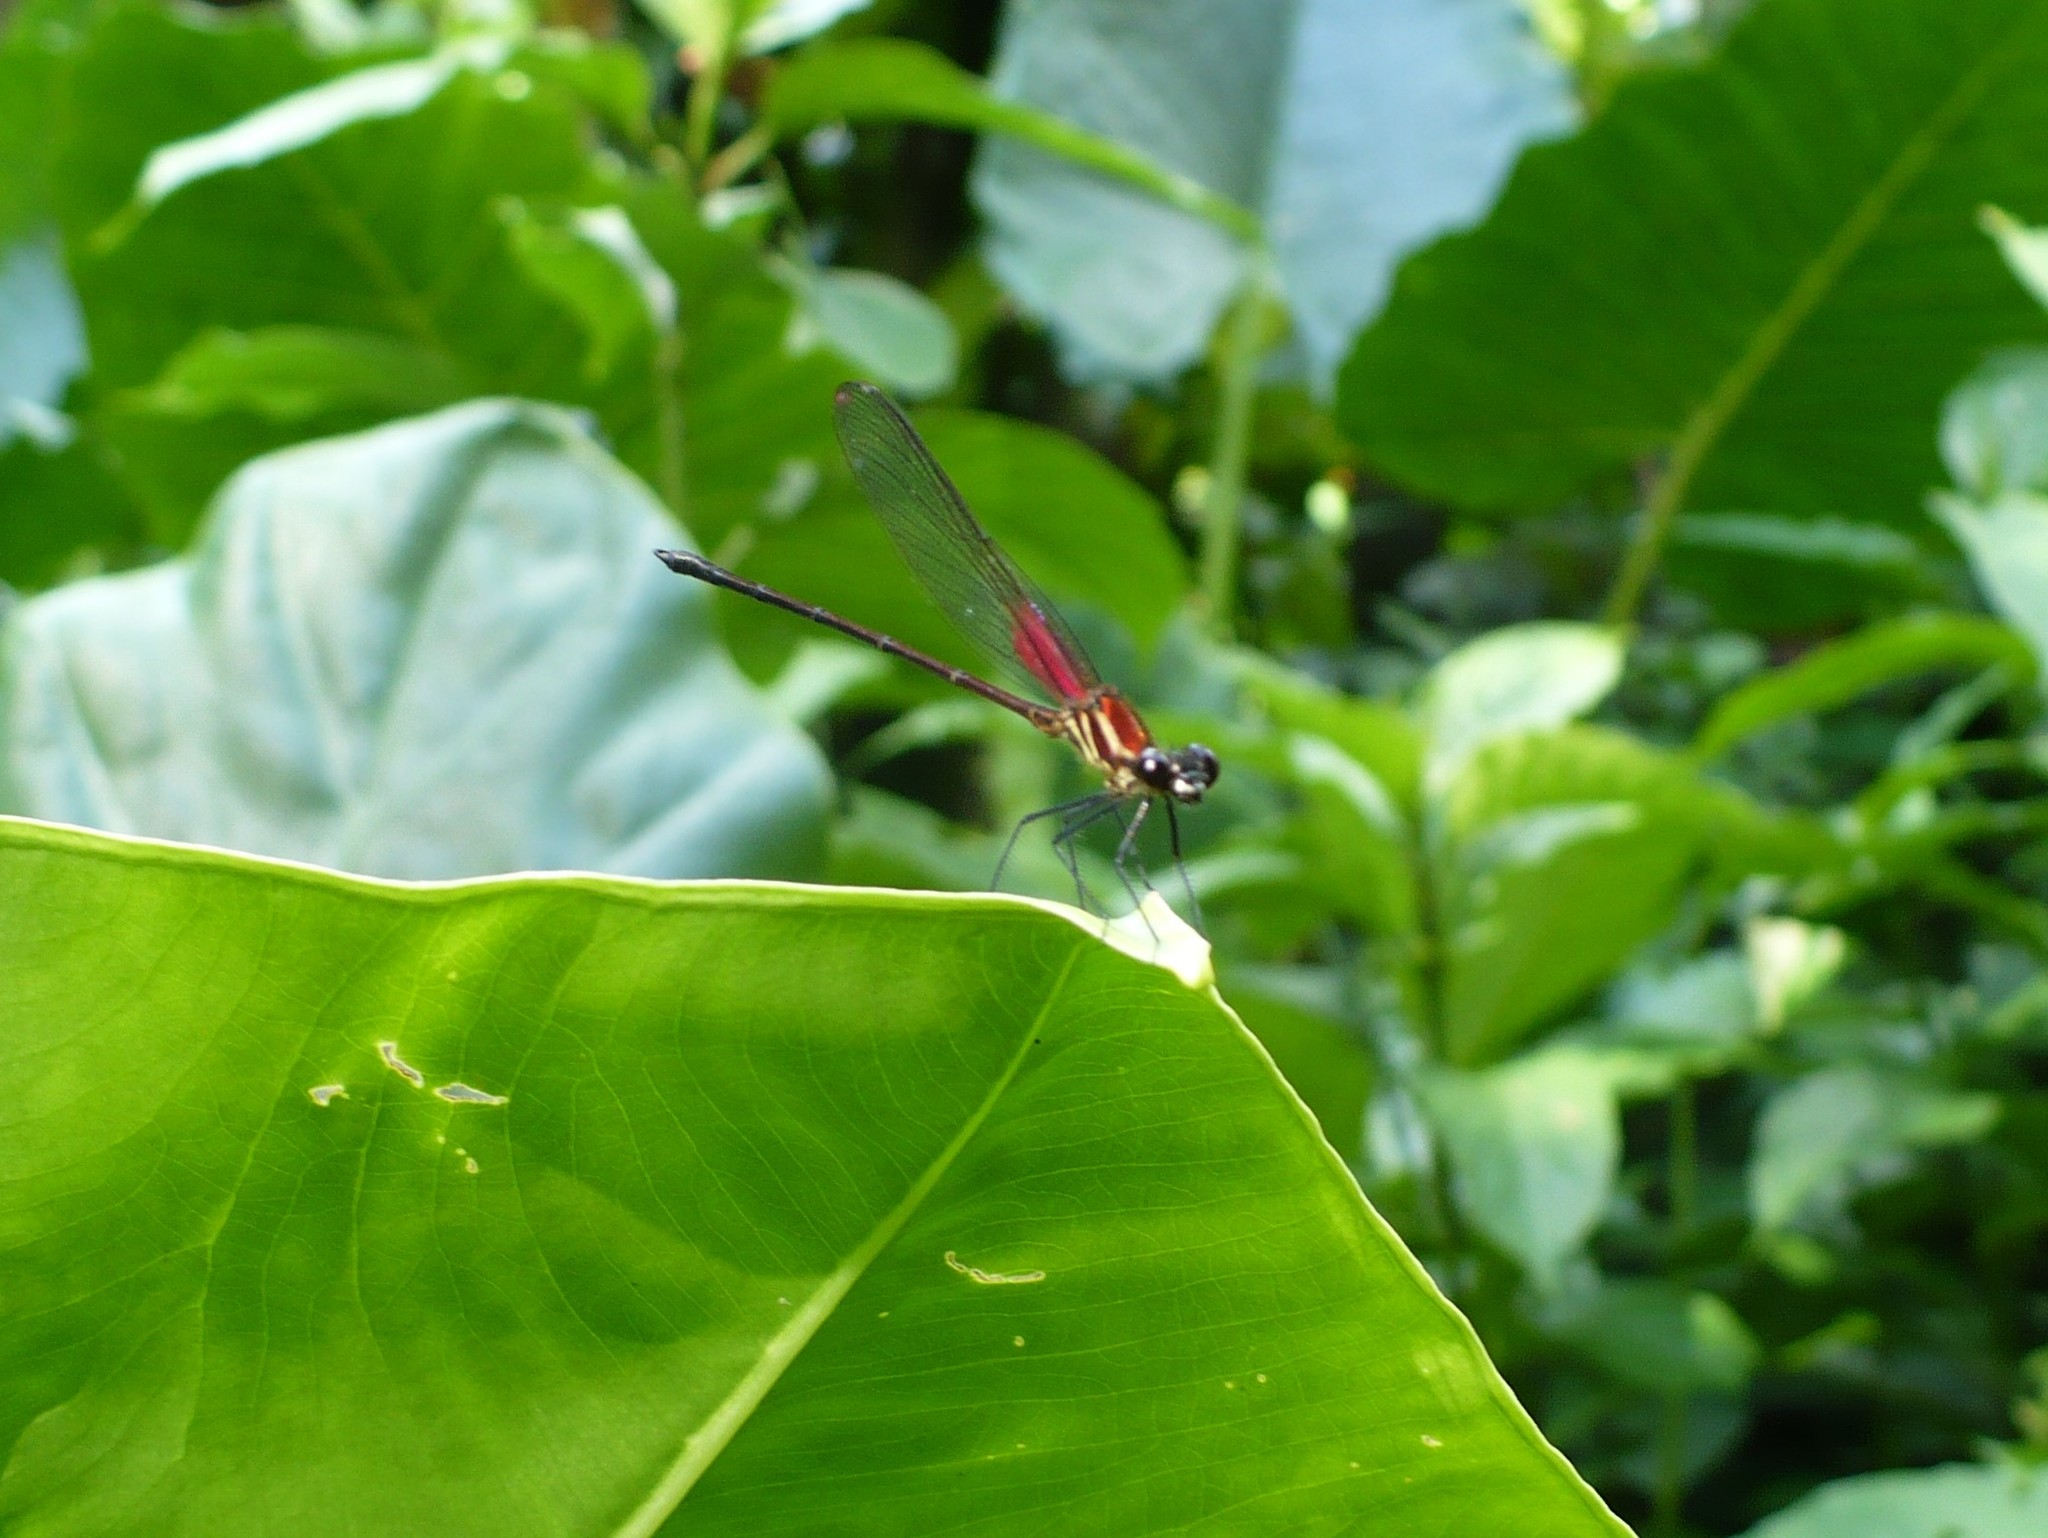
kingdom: Animalia
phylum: Arthropoda
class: Insecta
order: Odonata
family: Calopterygidae
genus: Hetaerina
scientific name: Hetaerina miniata
